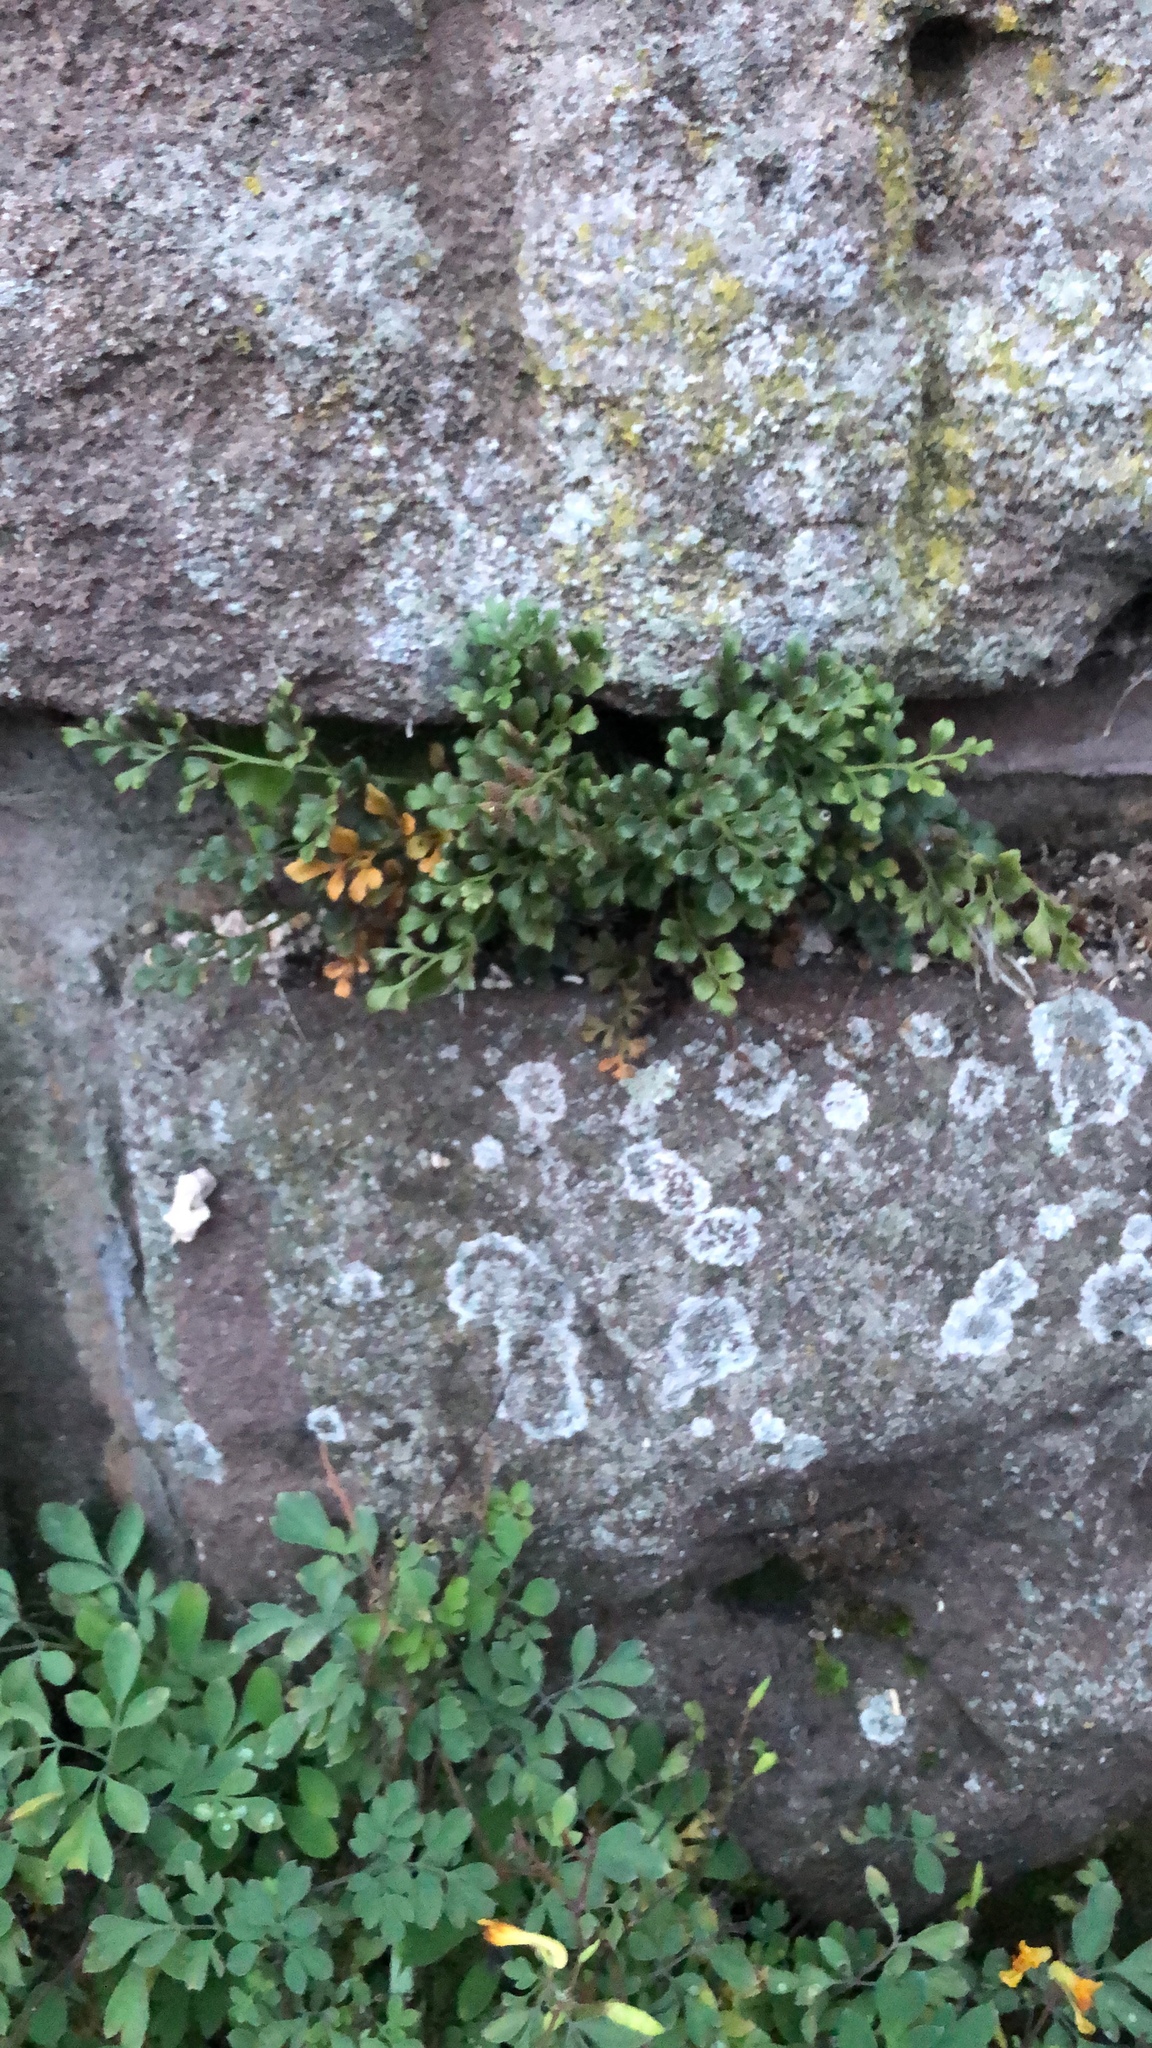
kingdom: Plantae
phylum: Tracheophyta
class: Polypodiopsida
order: Polypodiales
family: Aspleniaceae
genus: Asplenium
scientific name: Asplenium ruta-muraria
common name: Wall-rue
